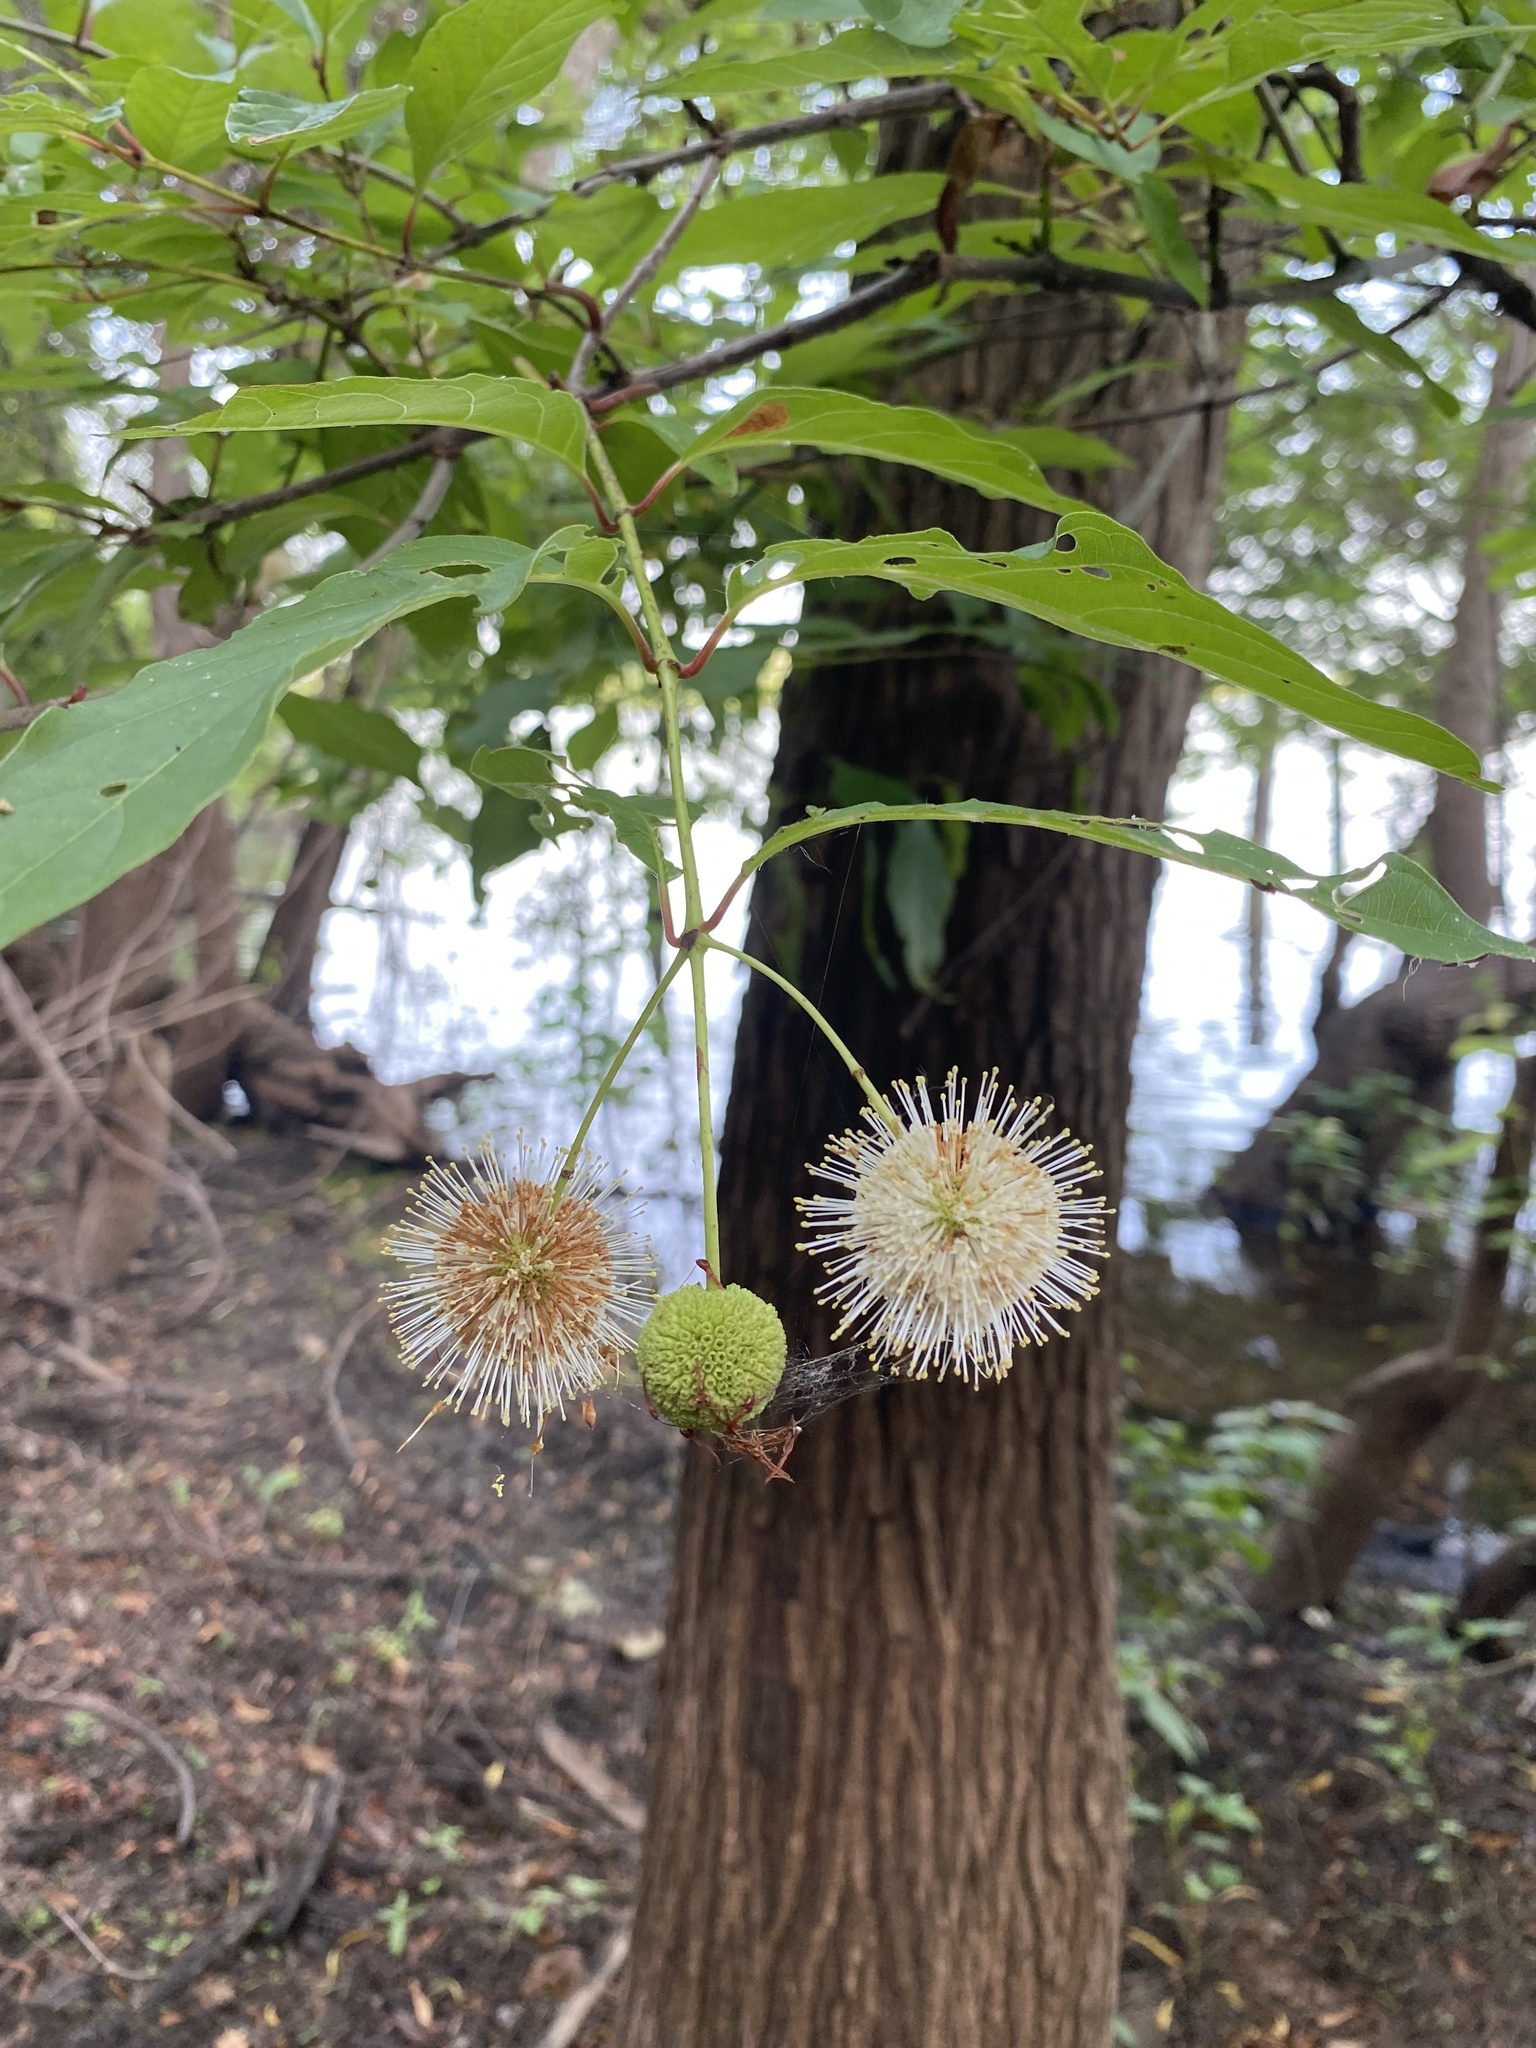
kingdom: Plantae
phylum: Tracheophyta
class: Magnoliopsida
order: Gentianales
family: Rubiaceae
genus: Cephalanthus
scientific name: Cephalanthus occidentalis
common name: Button-willow
